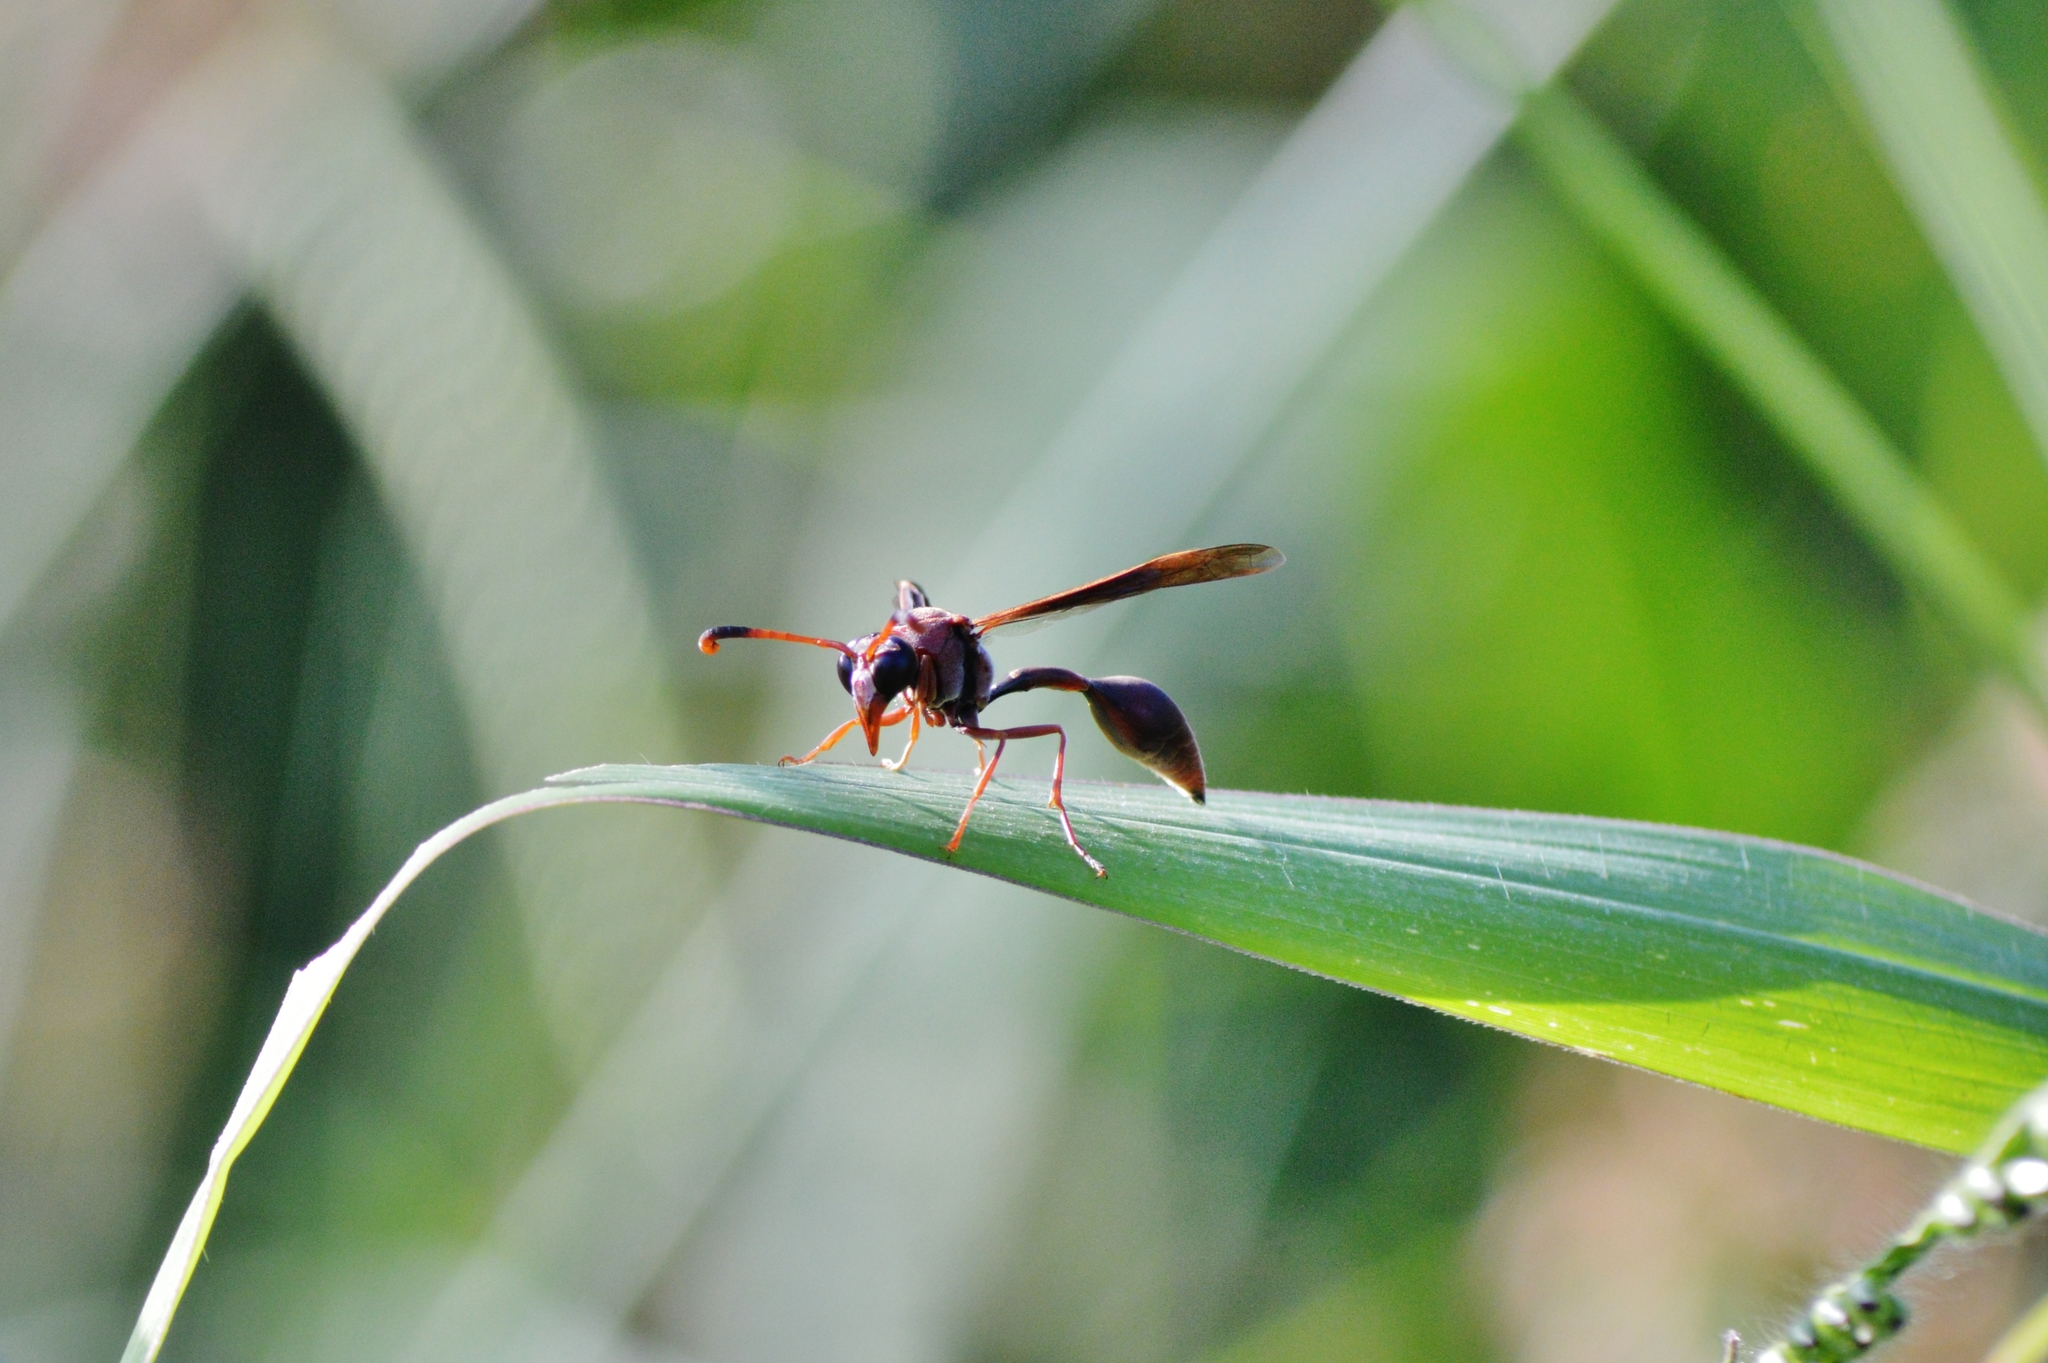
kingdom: Animalia
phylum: Arthropoda
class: Insecta
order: Hymenoptera
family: Eumenidae
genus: Zeta
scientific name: Zeta argillaceum
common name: Potter wasp
